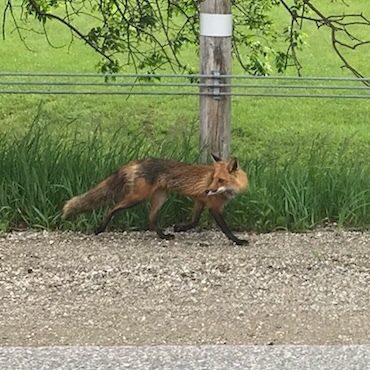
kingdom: Animalia
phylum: Chordata
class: Mammalia
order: Carnivora
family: Canidae
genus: Vulpes
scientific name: Vulpes vulpes
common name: Red fox
